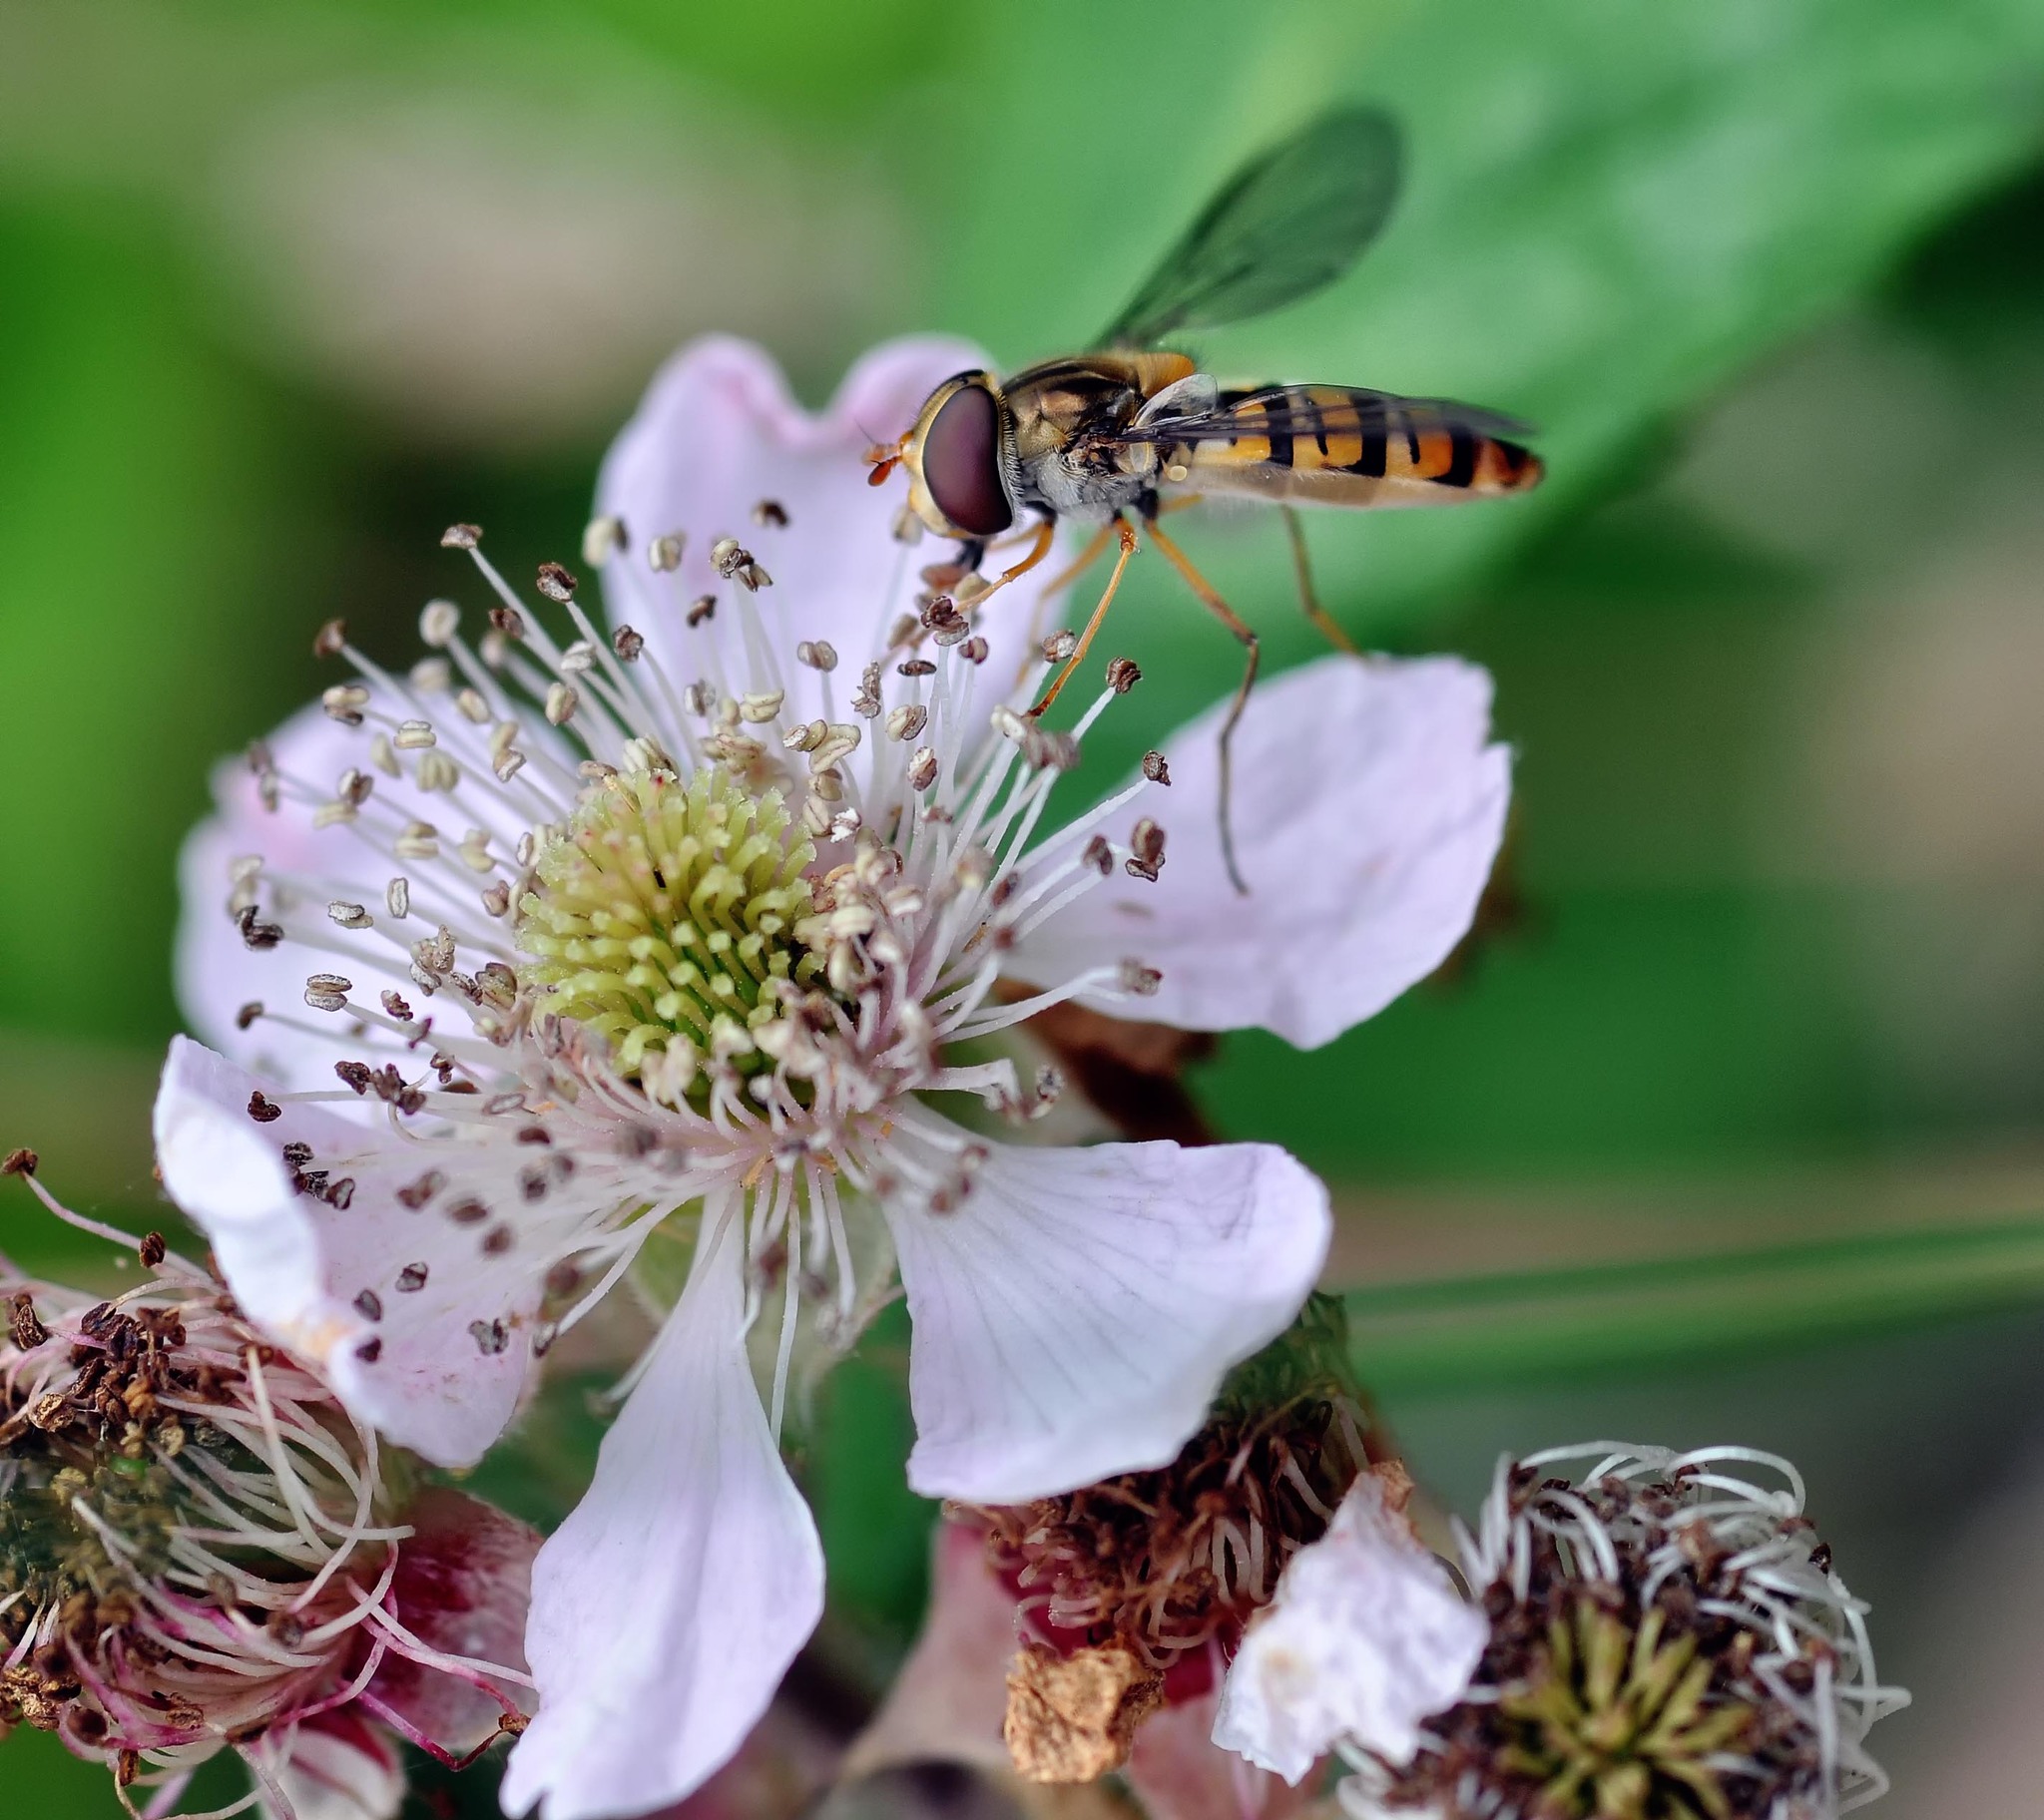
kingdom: Animalia
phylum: Arthropoda
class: Insecta
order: Diptera
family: Syrphidae
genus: Episyrphus
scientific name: Episyrphus balteatus
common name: Marmalade hoverfly
